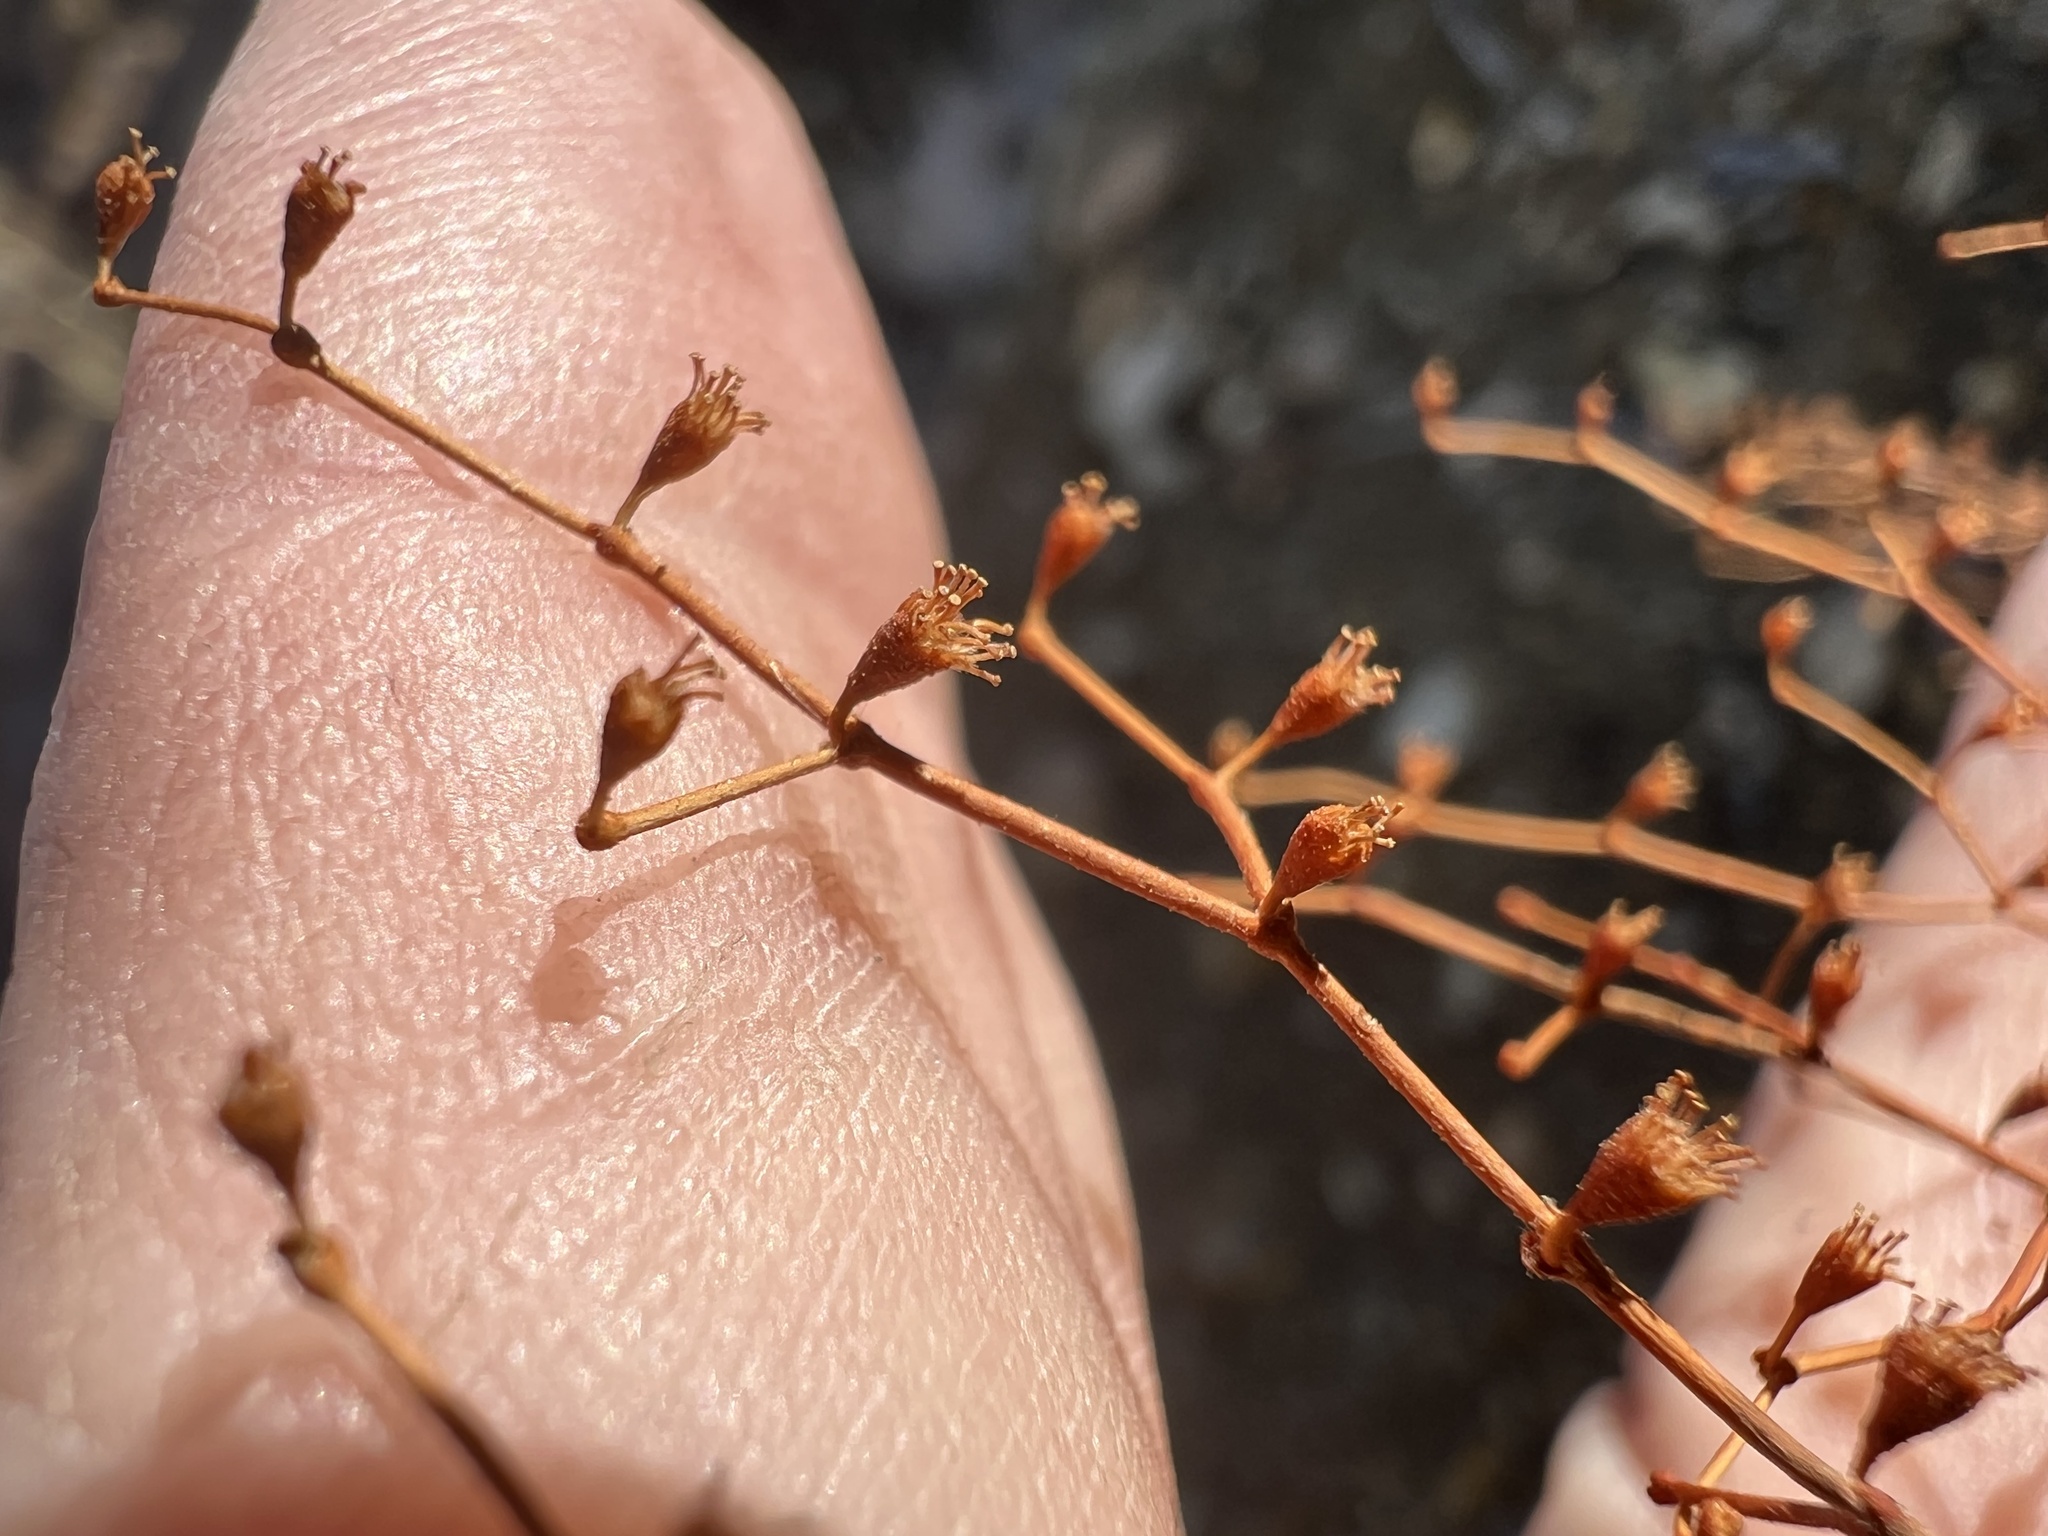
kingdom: Plantae
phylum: Tracheophyta
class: Magnoliopsida
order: Caryophyllales
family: Polygonaceae
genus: Eriogonum
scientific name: Eriogonum brachypodum
